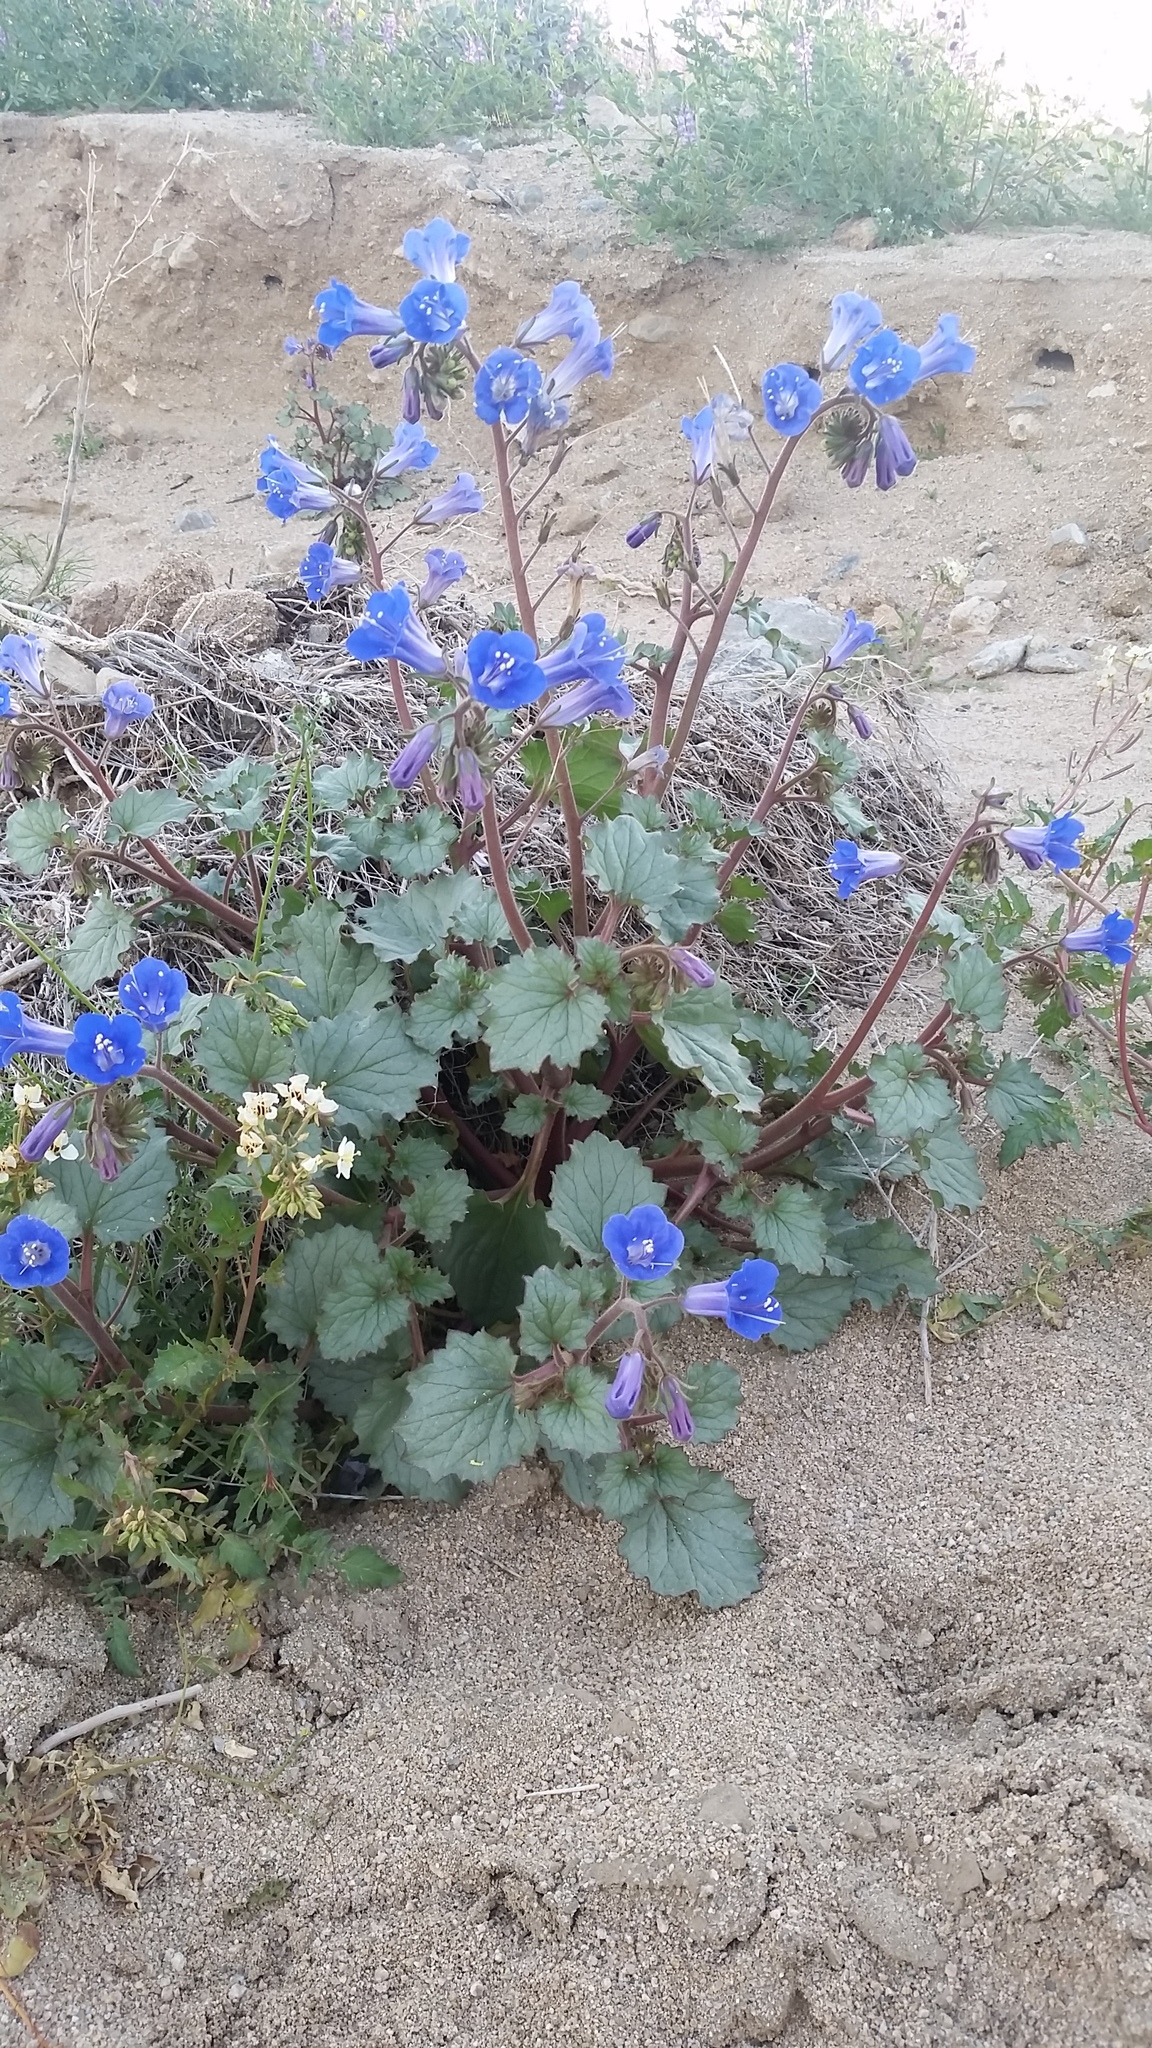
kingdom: Plantae
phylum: Tracheophyta
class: Magnoliopsida
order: Boraginales
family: Hydrophyllaceae
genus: Phacelia
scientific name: Phacelia campanularia
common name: California bluebell
